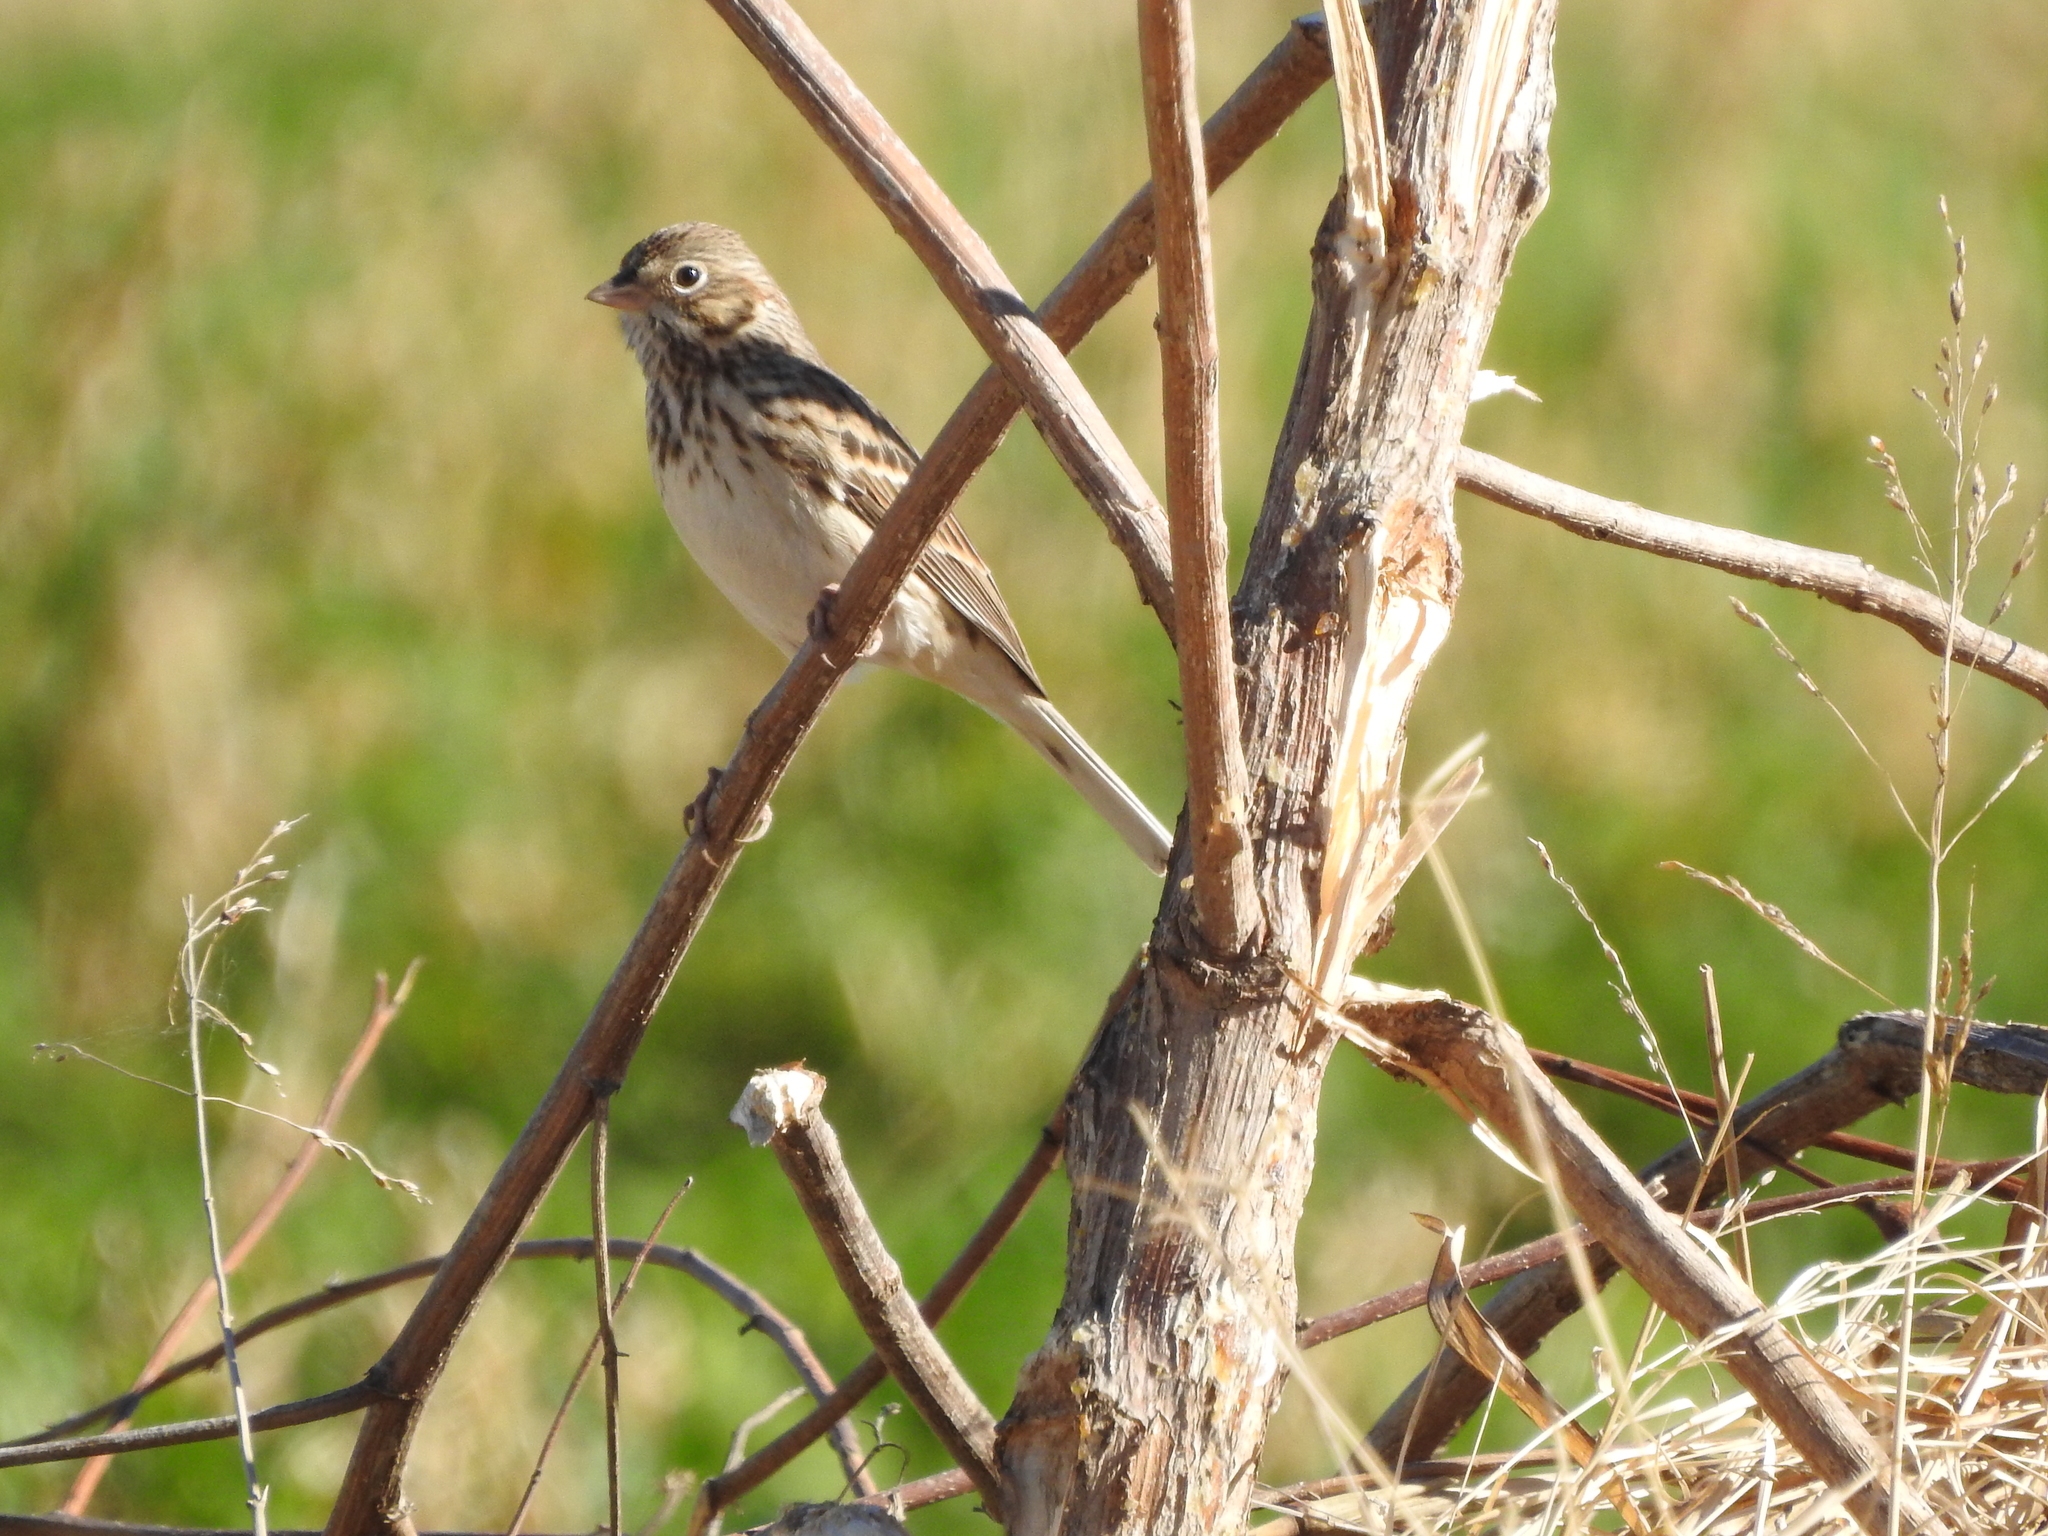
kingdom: Animalia
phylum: Chordata
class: Aves
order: Passeriformes
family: Passerellidae
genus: Pooecetes
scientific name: Pooecetes gramineus
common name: Vesper sparrow
